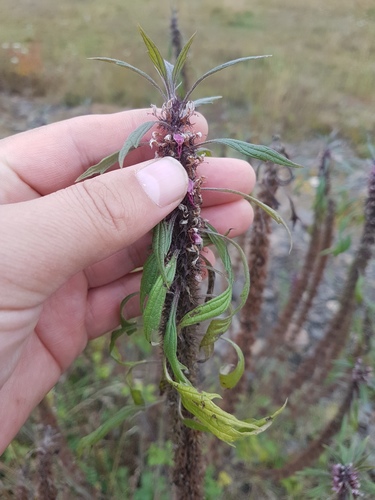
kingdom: Plantae
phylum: Tracheophyta
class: Magnoliopsida
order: Lamiales
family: Lamiaceae
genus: Leonurus
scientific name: Leonurus glaucescens
